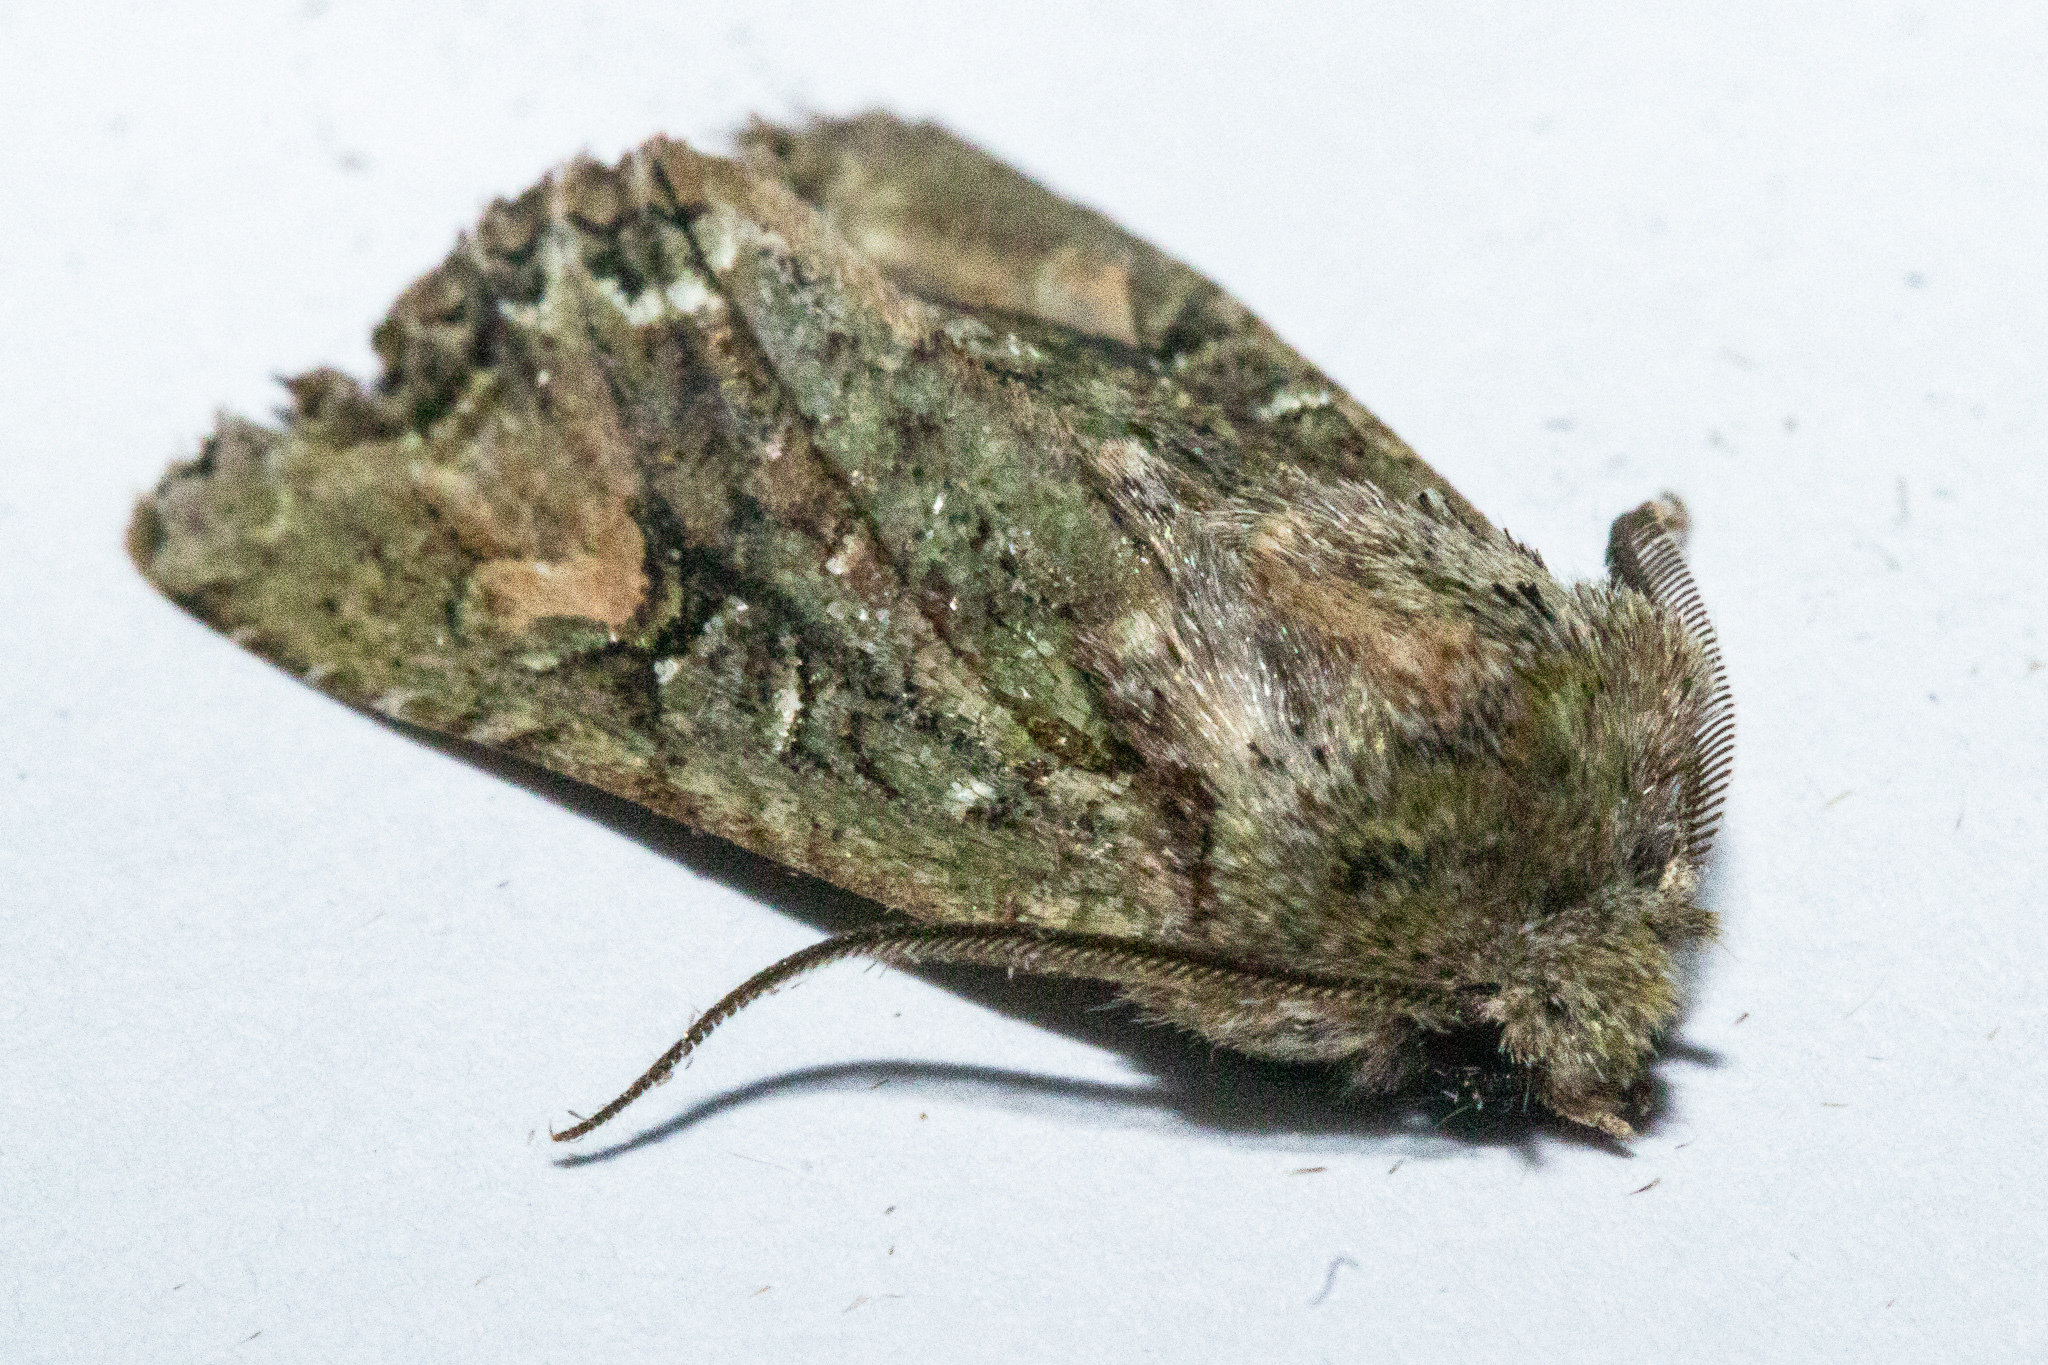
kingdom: Animalia
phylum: Arthropoda
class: Insecta
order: Lepidoptera
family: Noctuidae
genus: Ichneutica
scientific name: Ichneutica
